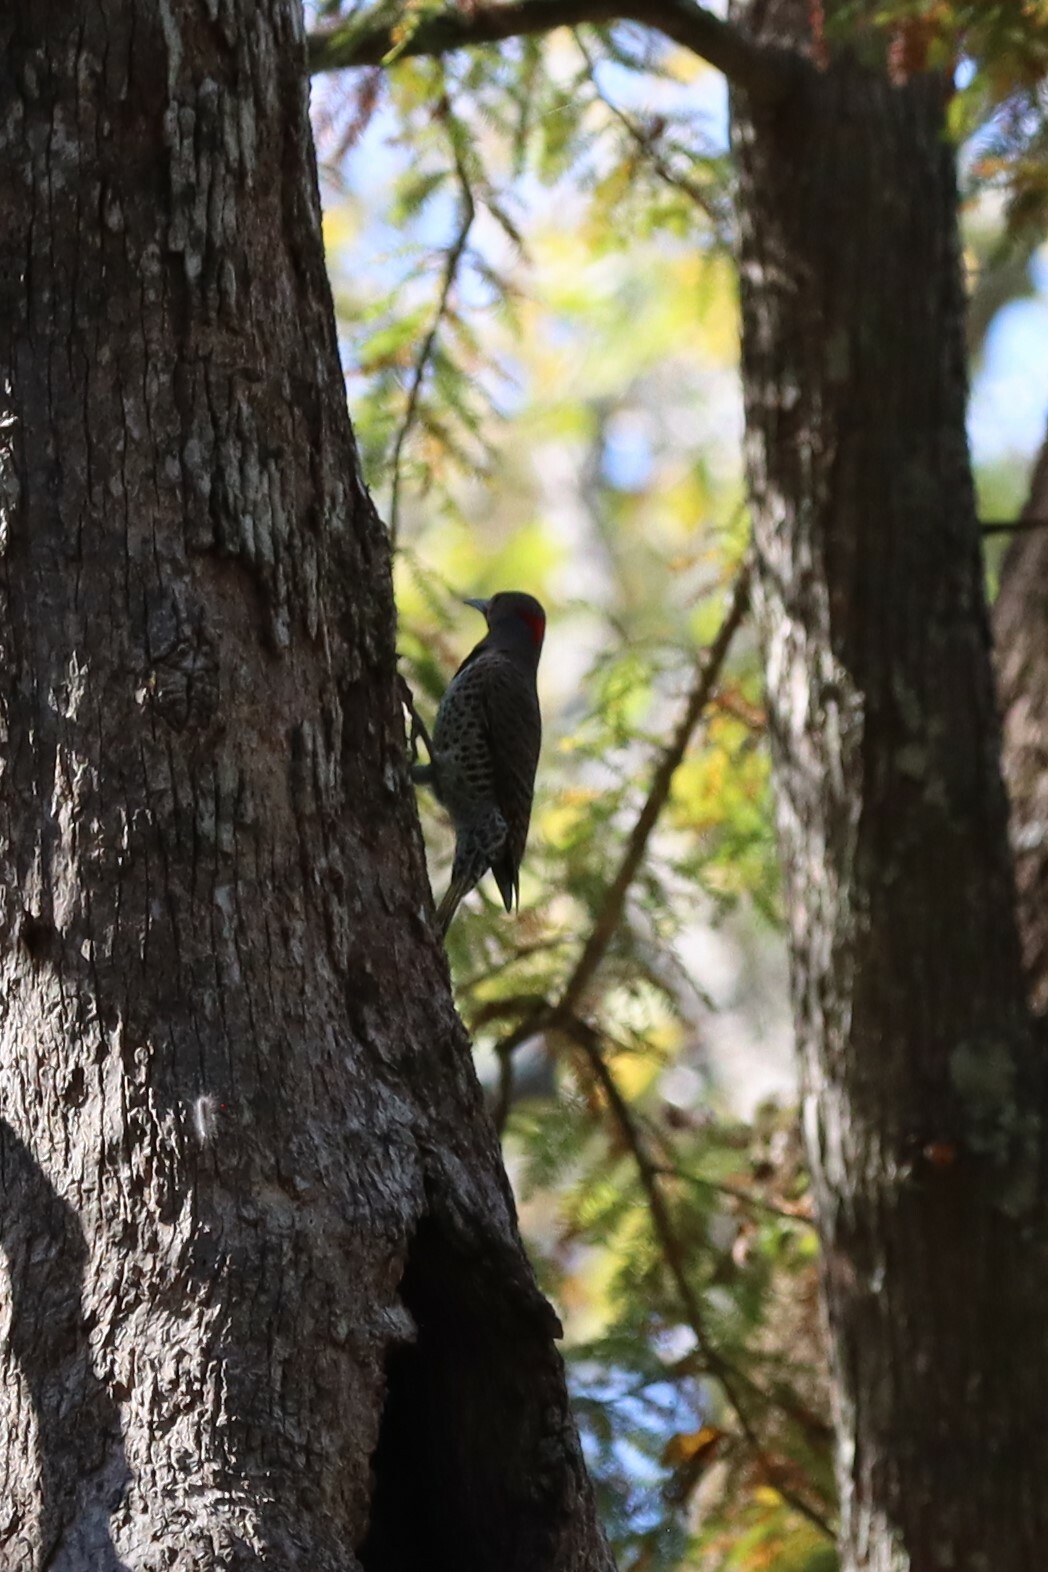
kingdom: Animalia
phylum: Chordata
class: Aves
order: Piciformes
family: Picidae
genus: Colaptes
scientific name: Colaptes auratus
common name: Northern flicker
